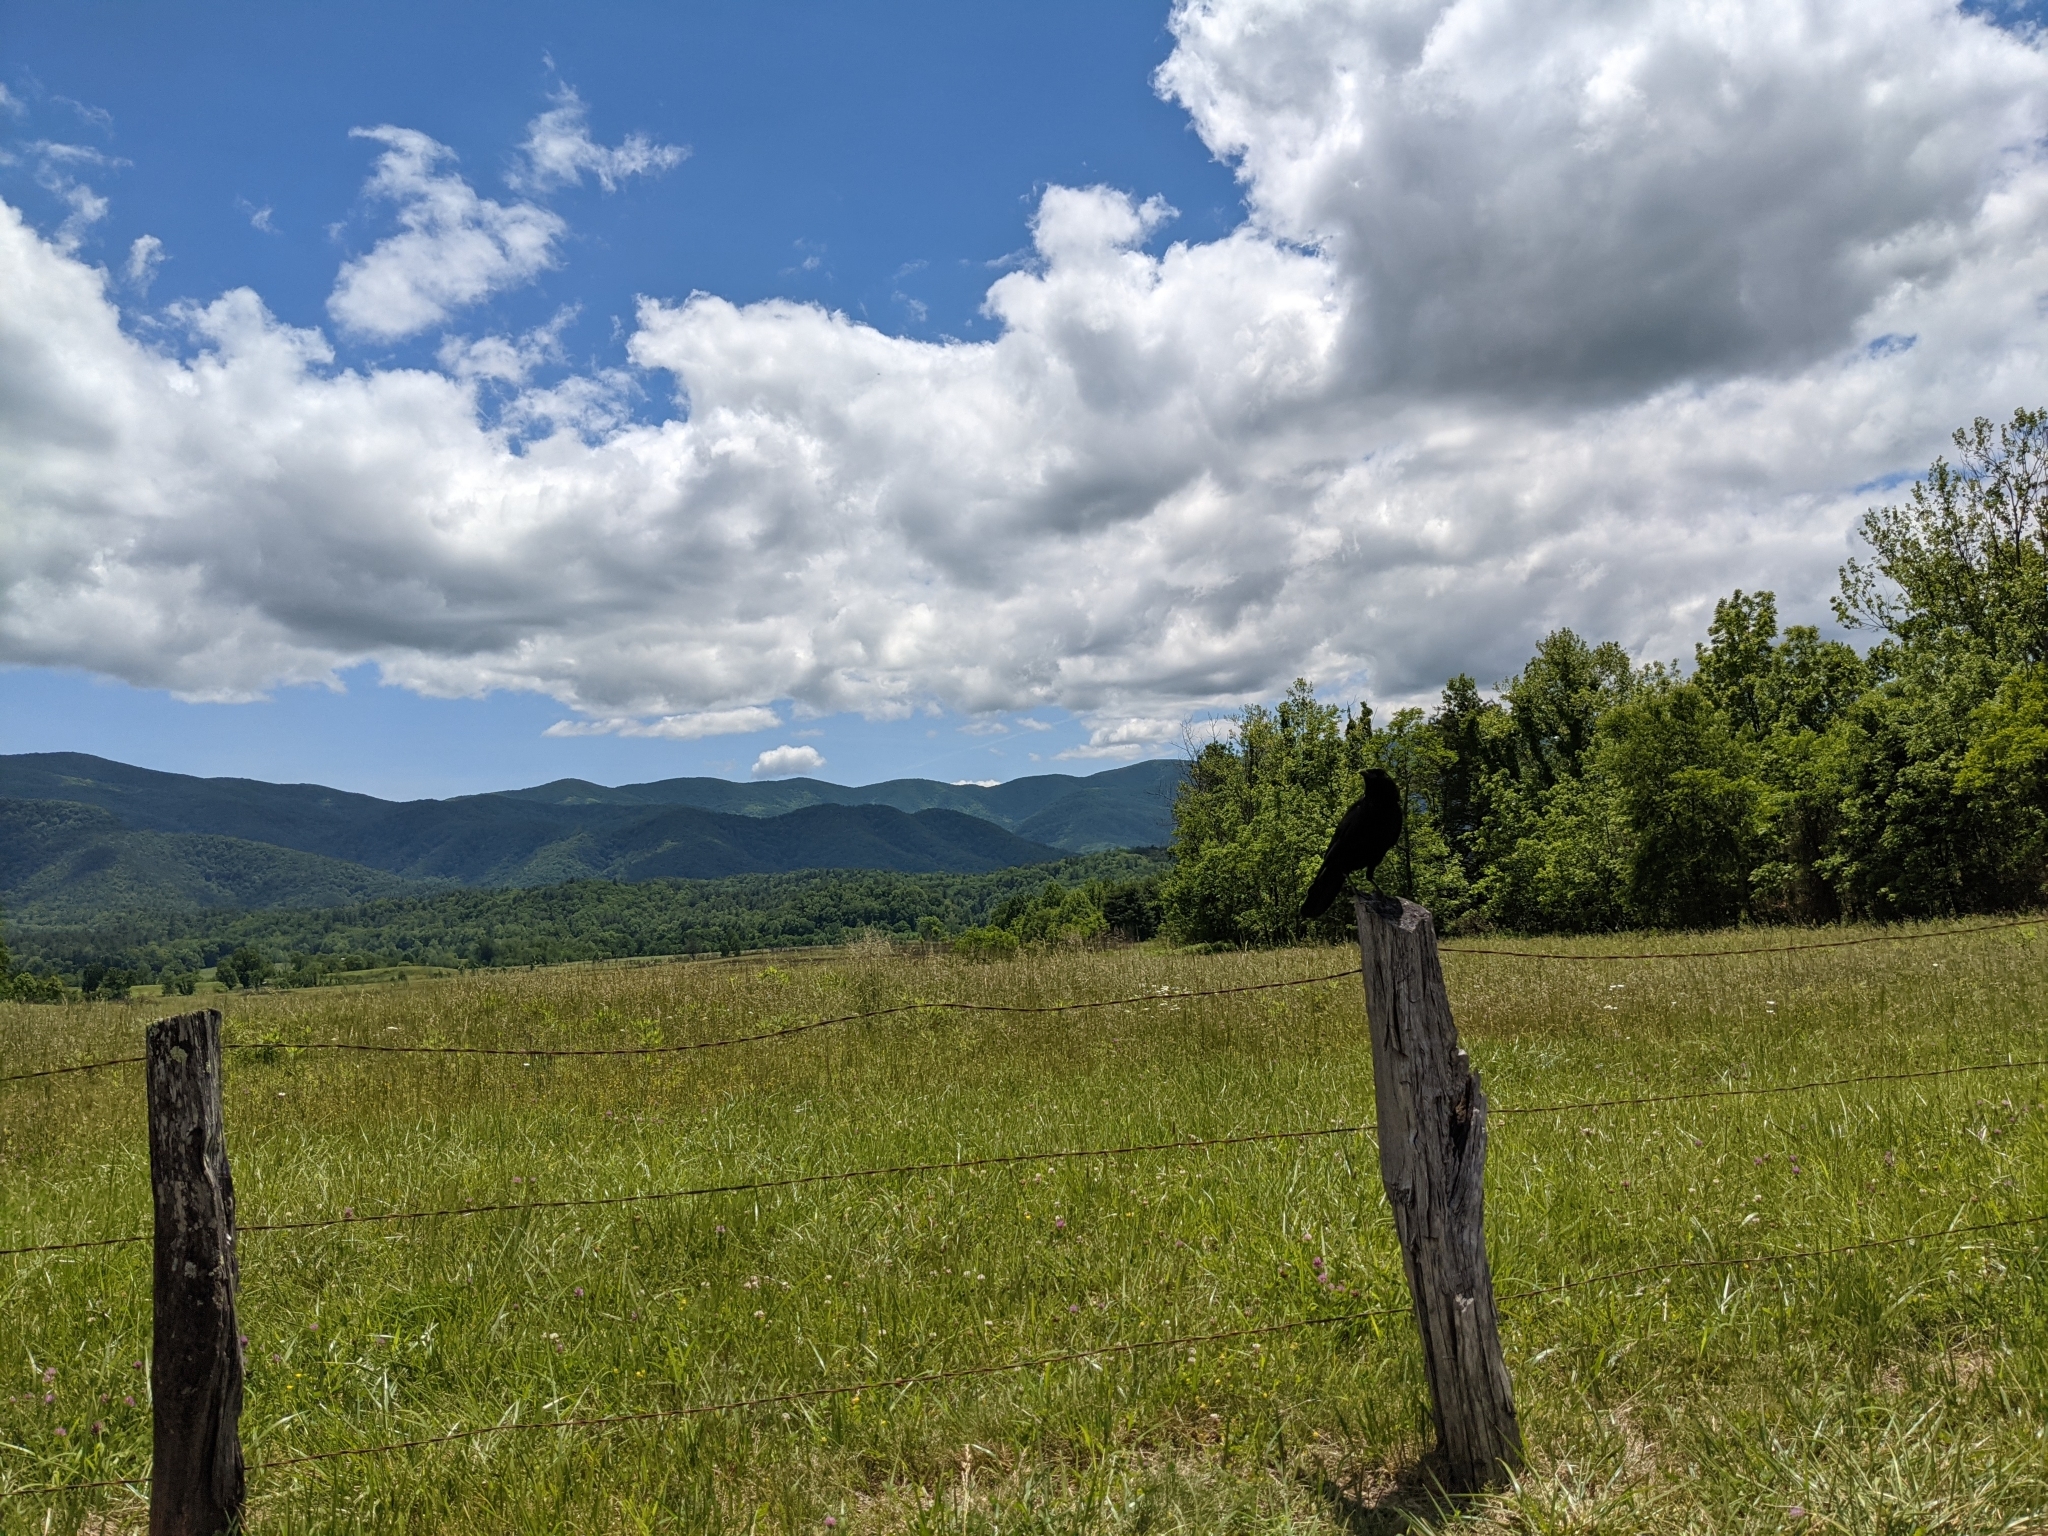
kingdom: Animalia
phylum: Chordata
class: Aves
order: Passeriformes
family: Corvidae
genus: Corvus
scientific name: Corvus brachyrhynchos
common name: American crow
